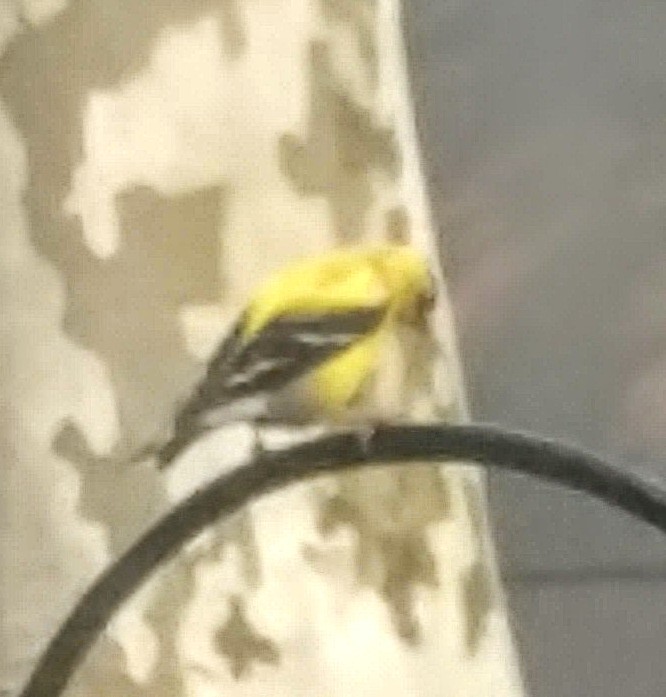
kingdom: Animalia
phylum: Chordata
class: Aves
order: Passeriformes
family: Fringillidae
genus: Spinus
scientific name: Spinus tristis
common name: American goldfinch
